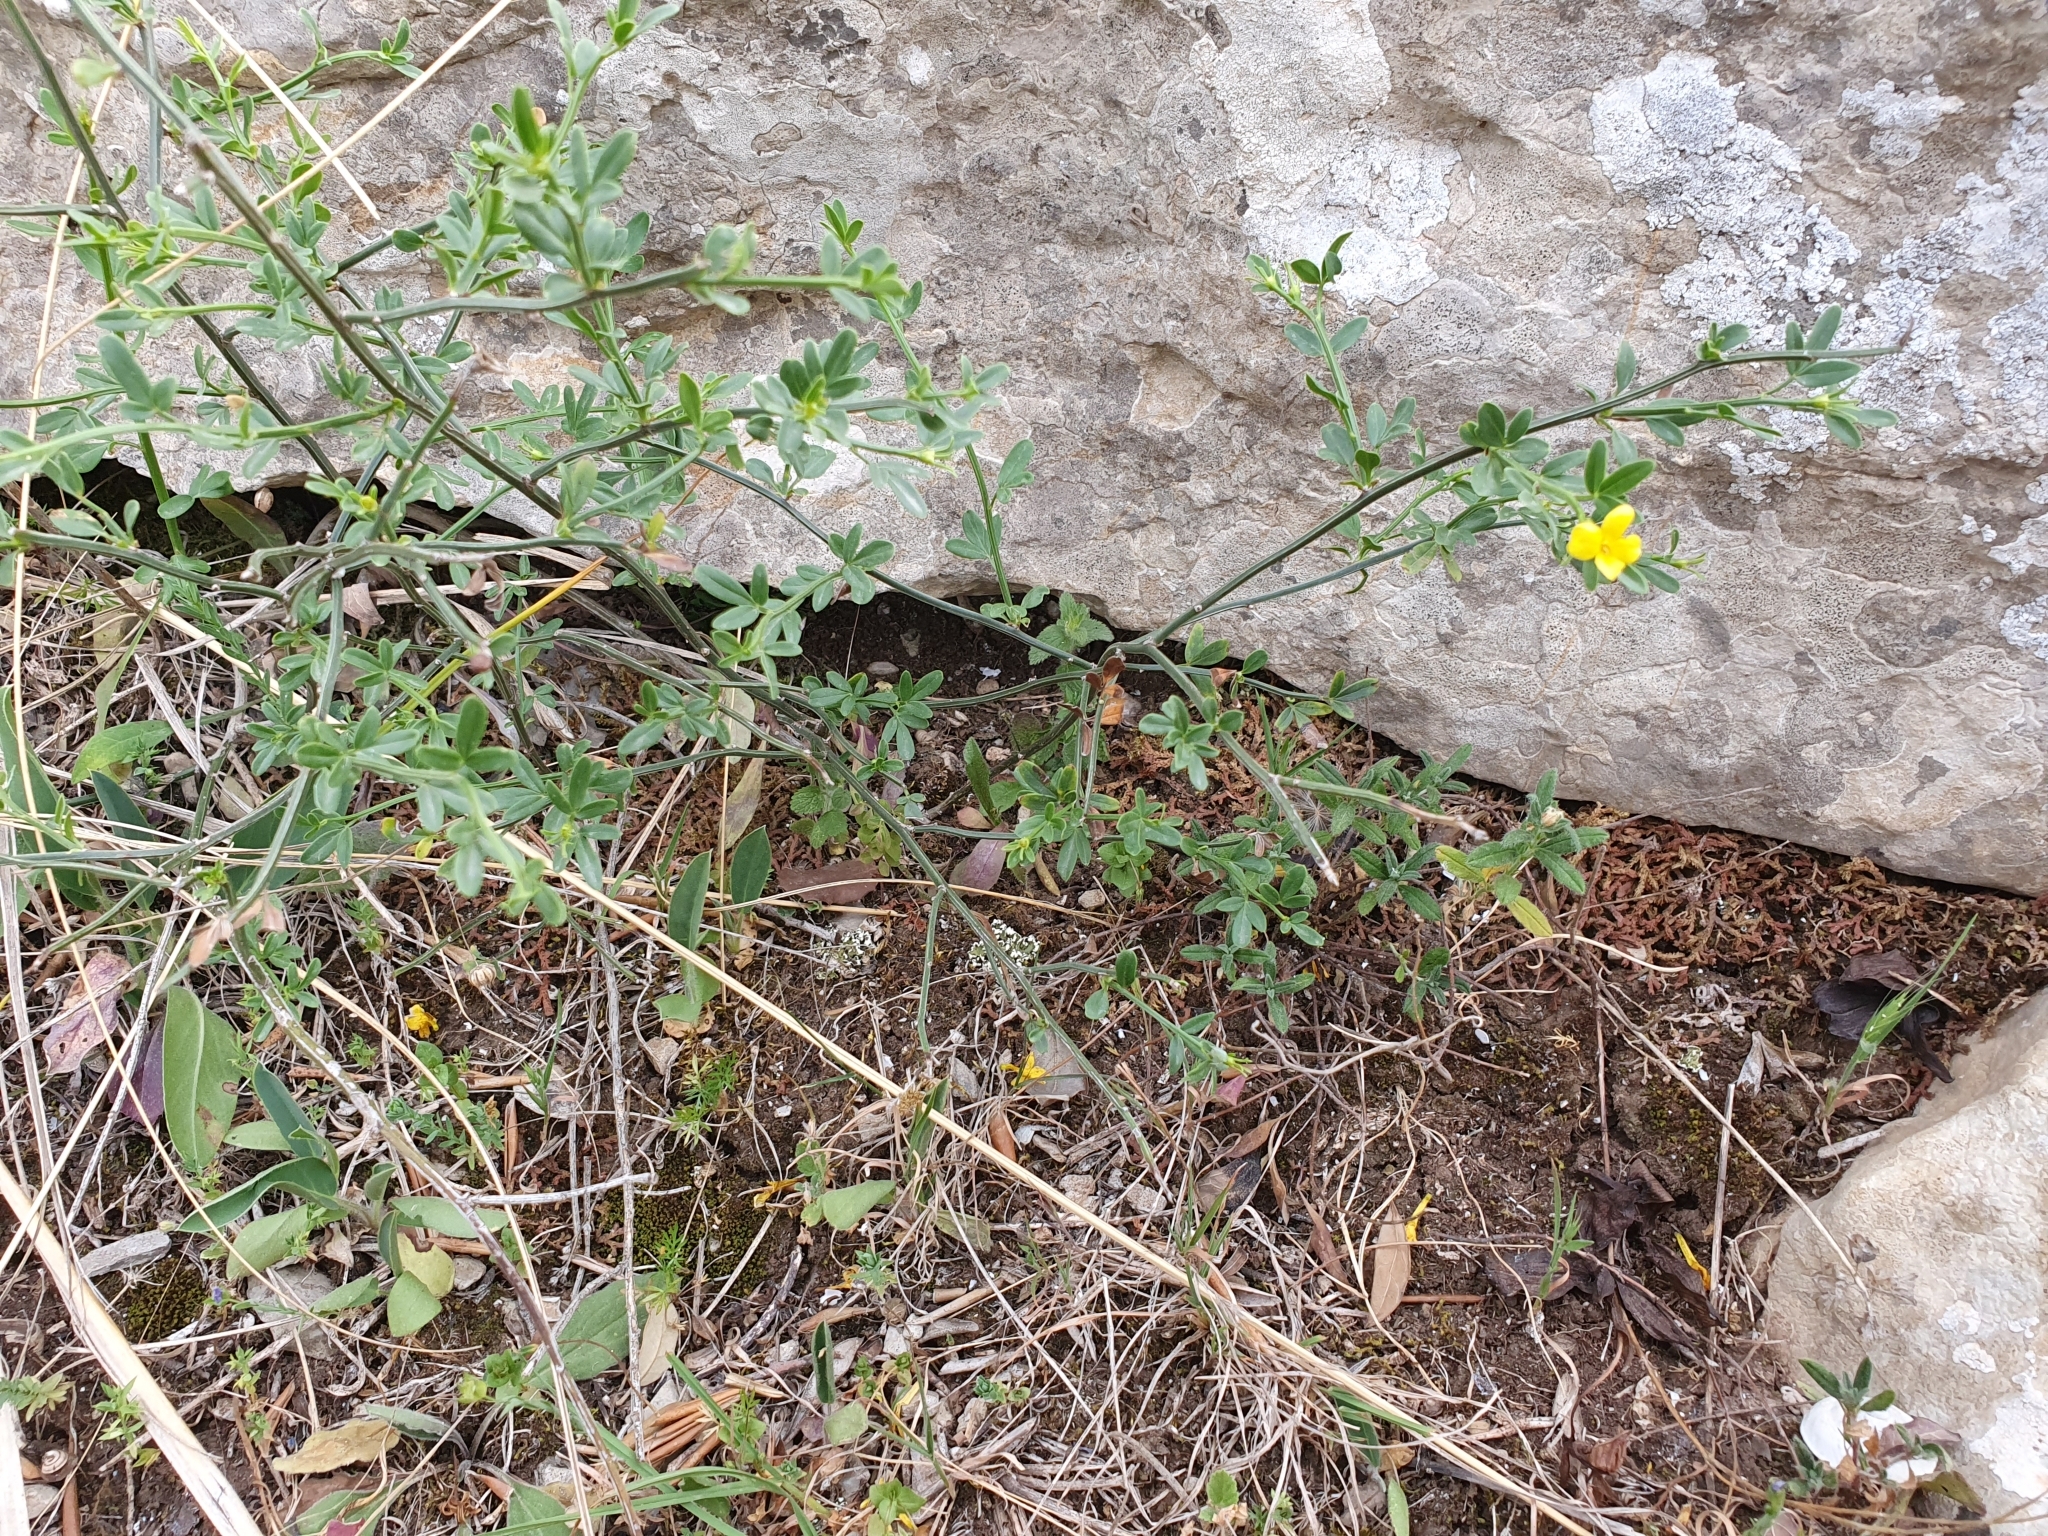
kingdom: Plantae
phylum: Tracheophyta
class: Magnoliopsida
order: Lamiales
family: Oleaceae
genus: Chrysojasminum
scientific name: Chrysojasminum fruticans
